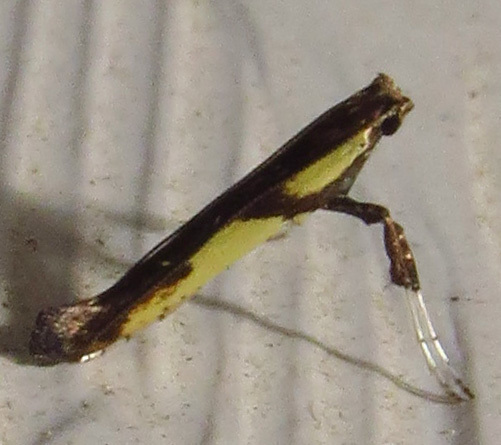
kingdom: Animalia
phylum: Arthropoda
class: Insecta
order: Lepidoptera
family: Gracillariidae
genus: Caloptilia
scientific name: Caloptilia blandella
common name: Walnut caloptilia moth
